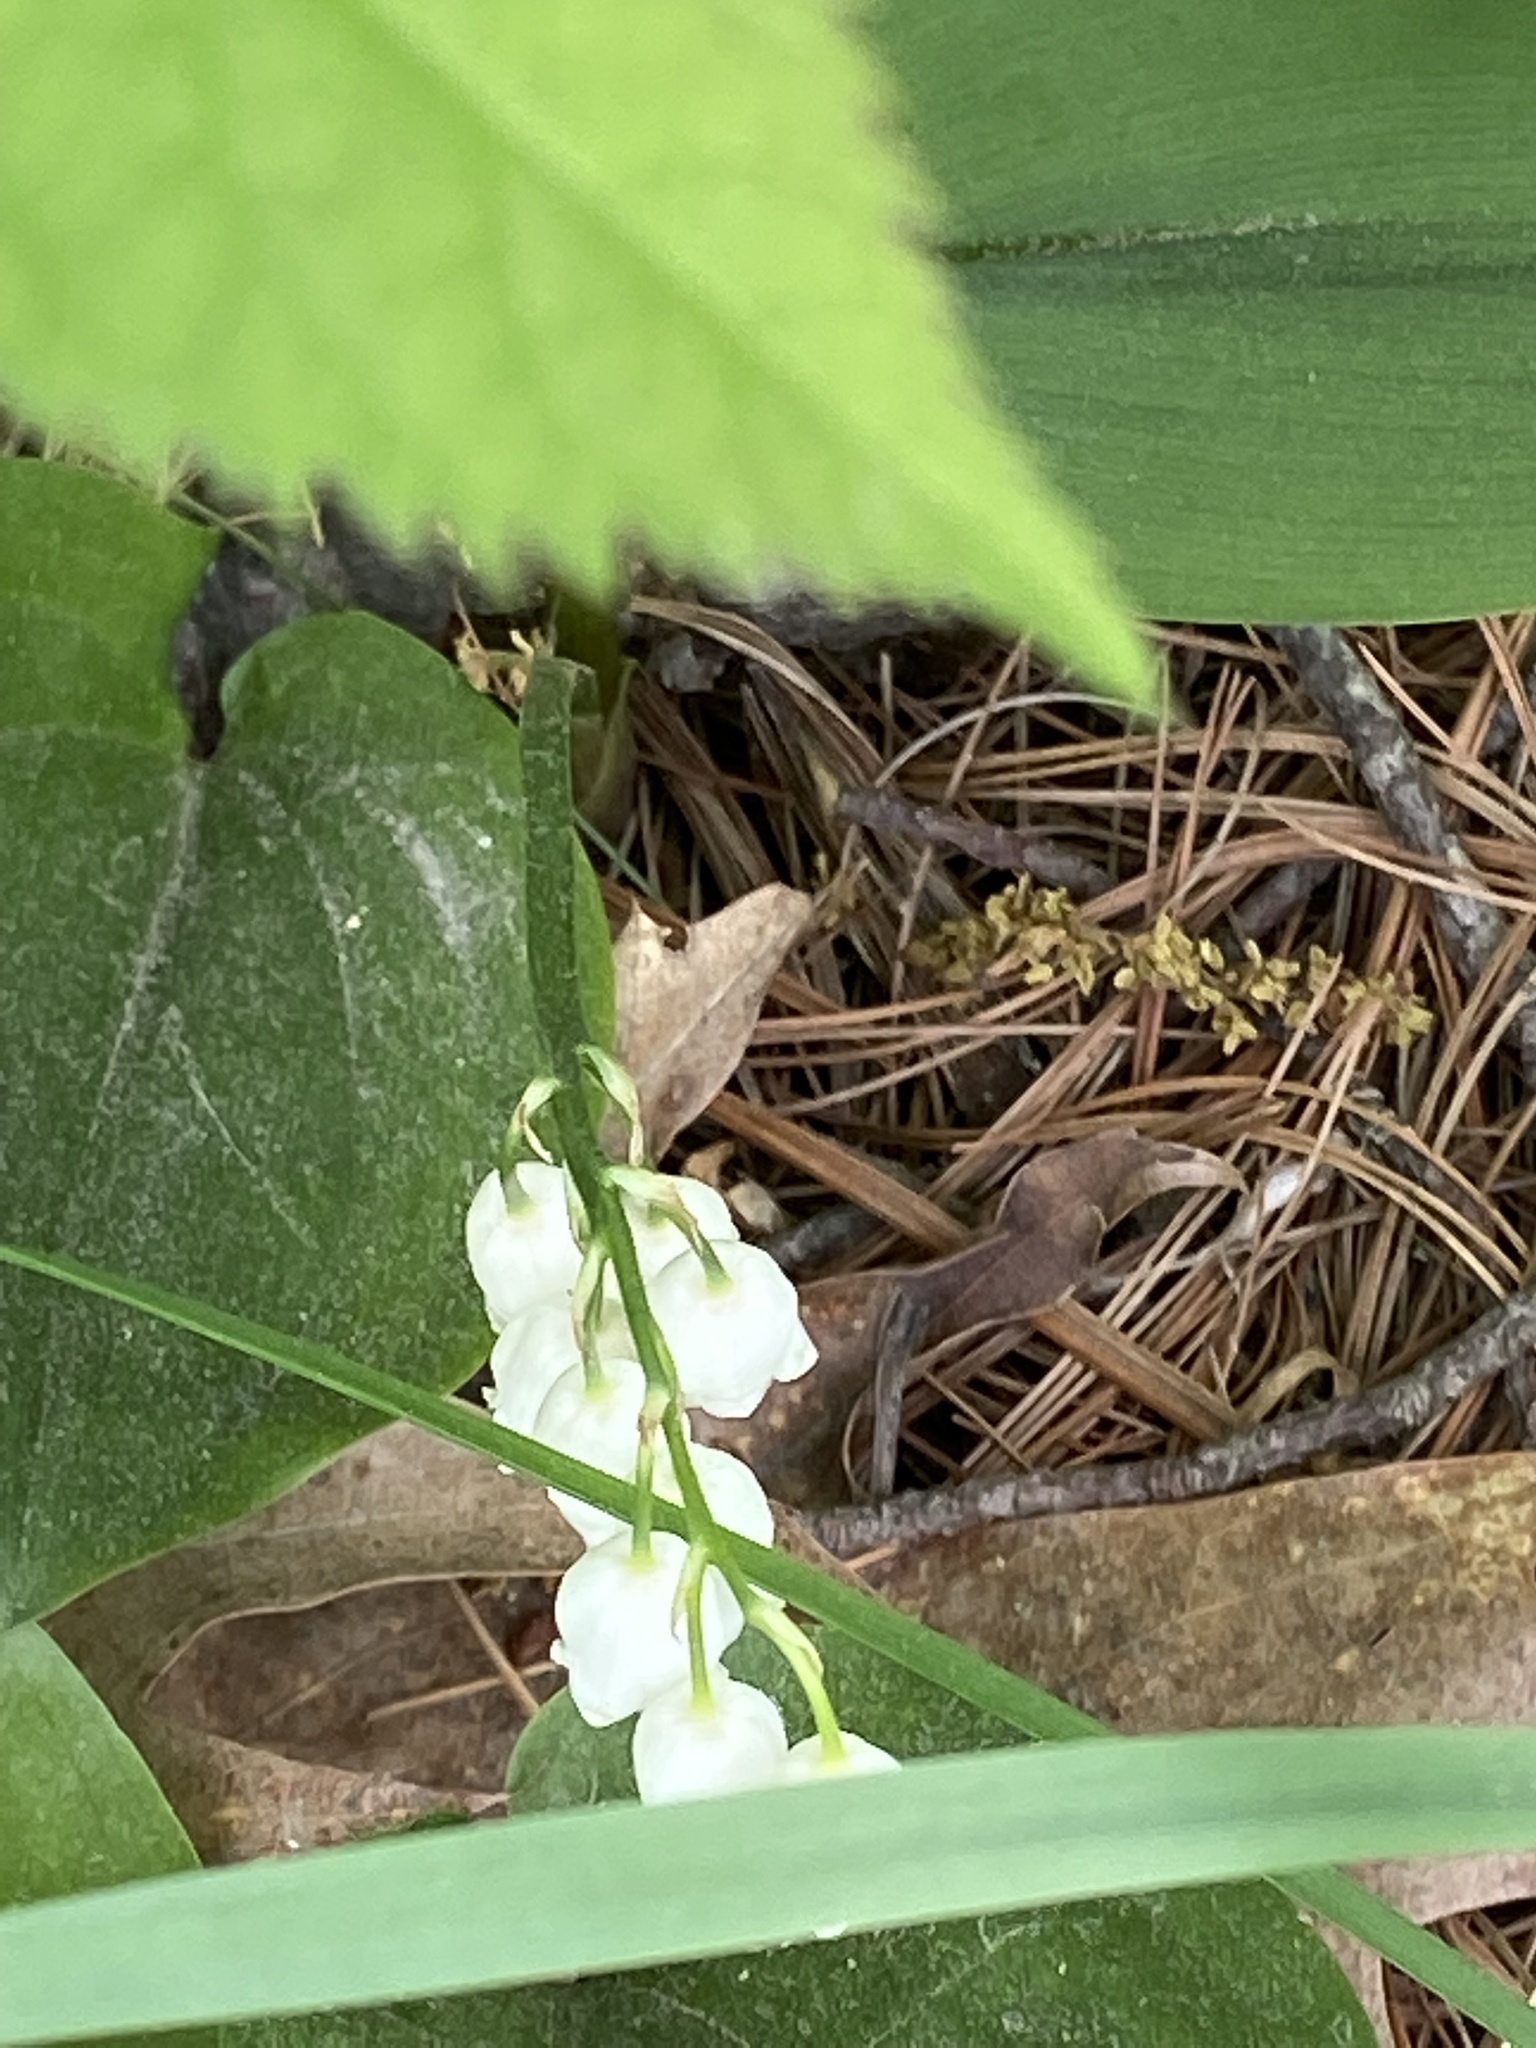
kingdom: Plantae
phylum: Tracheophyta
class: Liliopsida
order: Asparagales
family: Asparagaceae
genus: Convallaria
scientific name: Convallaria majalis
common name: Lily-of-the-valley
